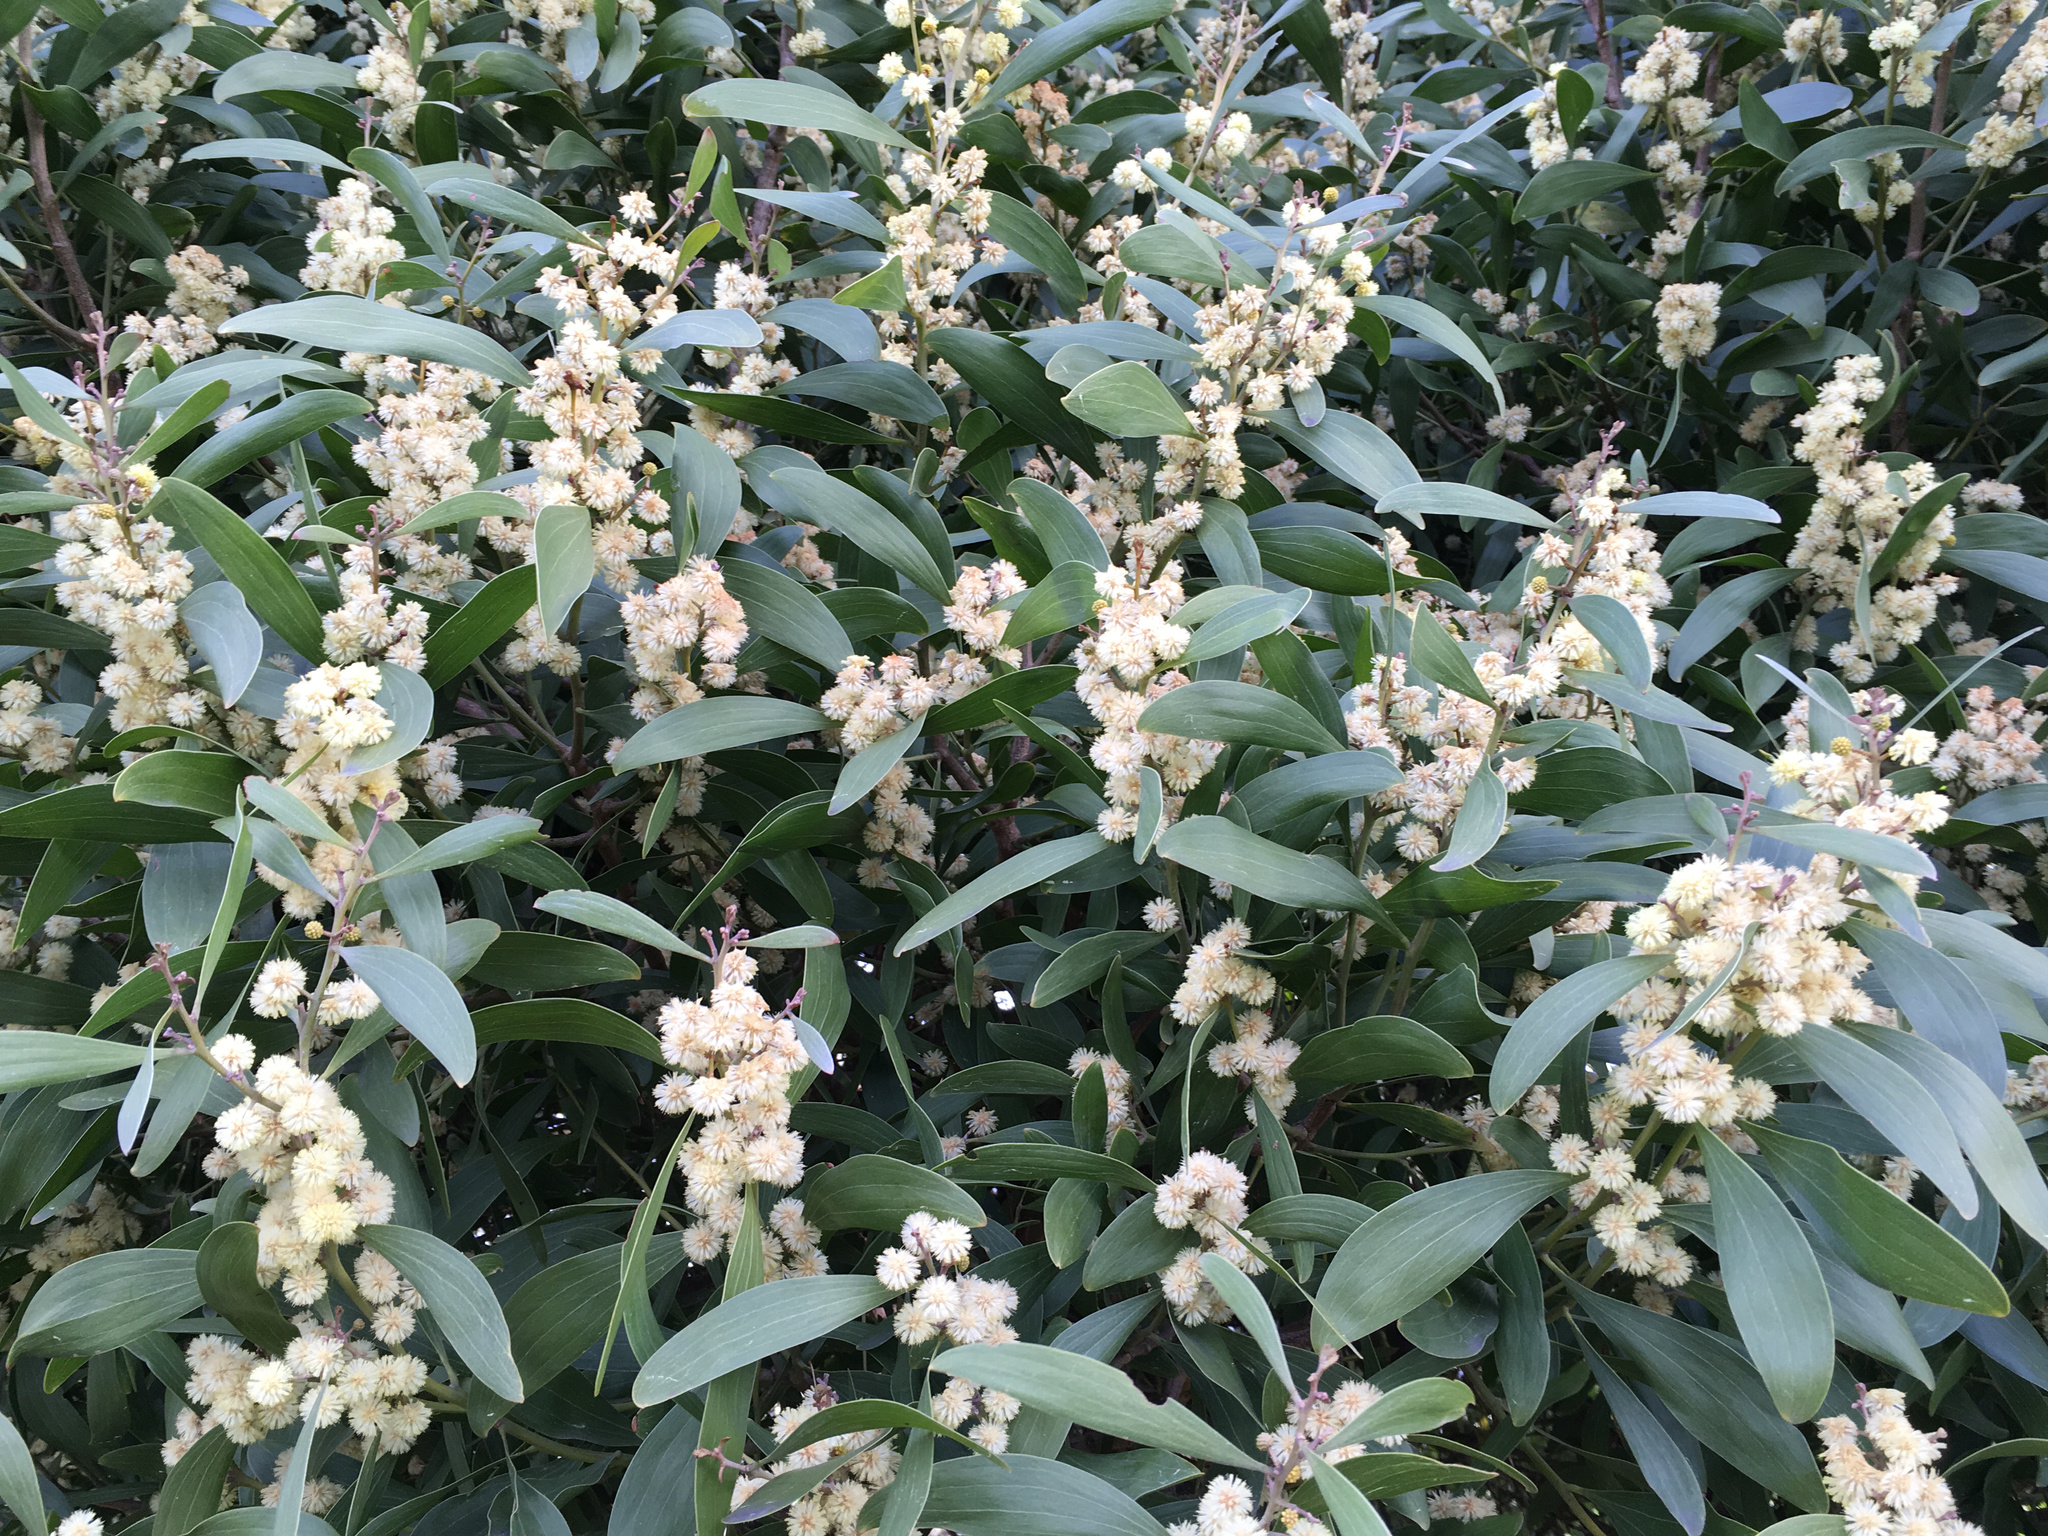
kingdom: Plantae
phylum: Tracheophyta
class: Magnoliopsida
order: Fabales
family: Fabaceae
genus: Acacia
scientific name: Acacia melanoxylon
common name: Blackwood
